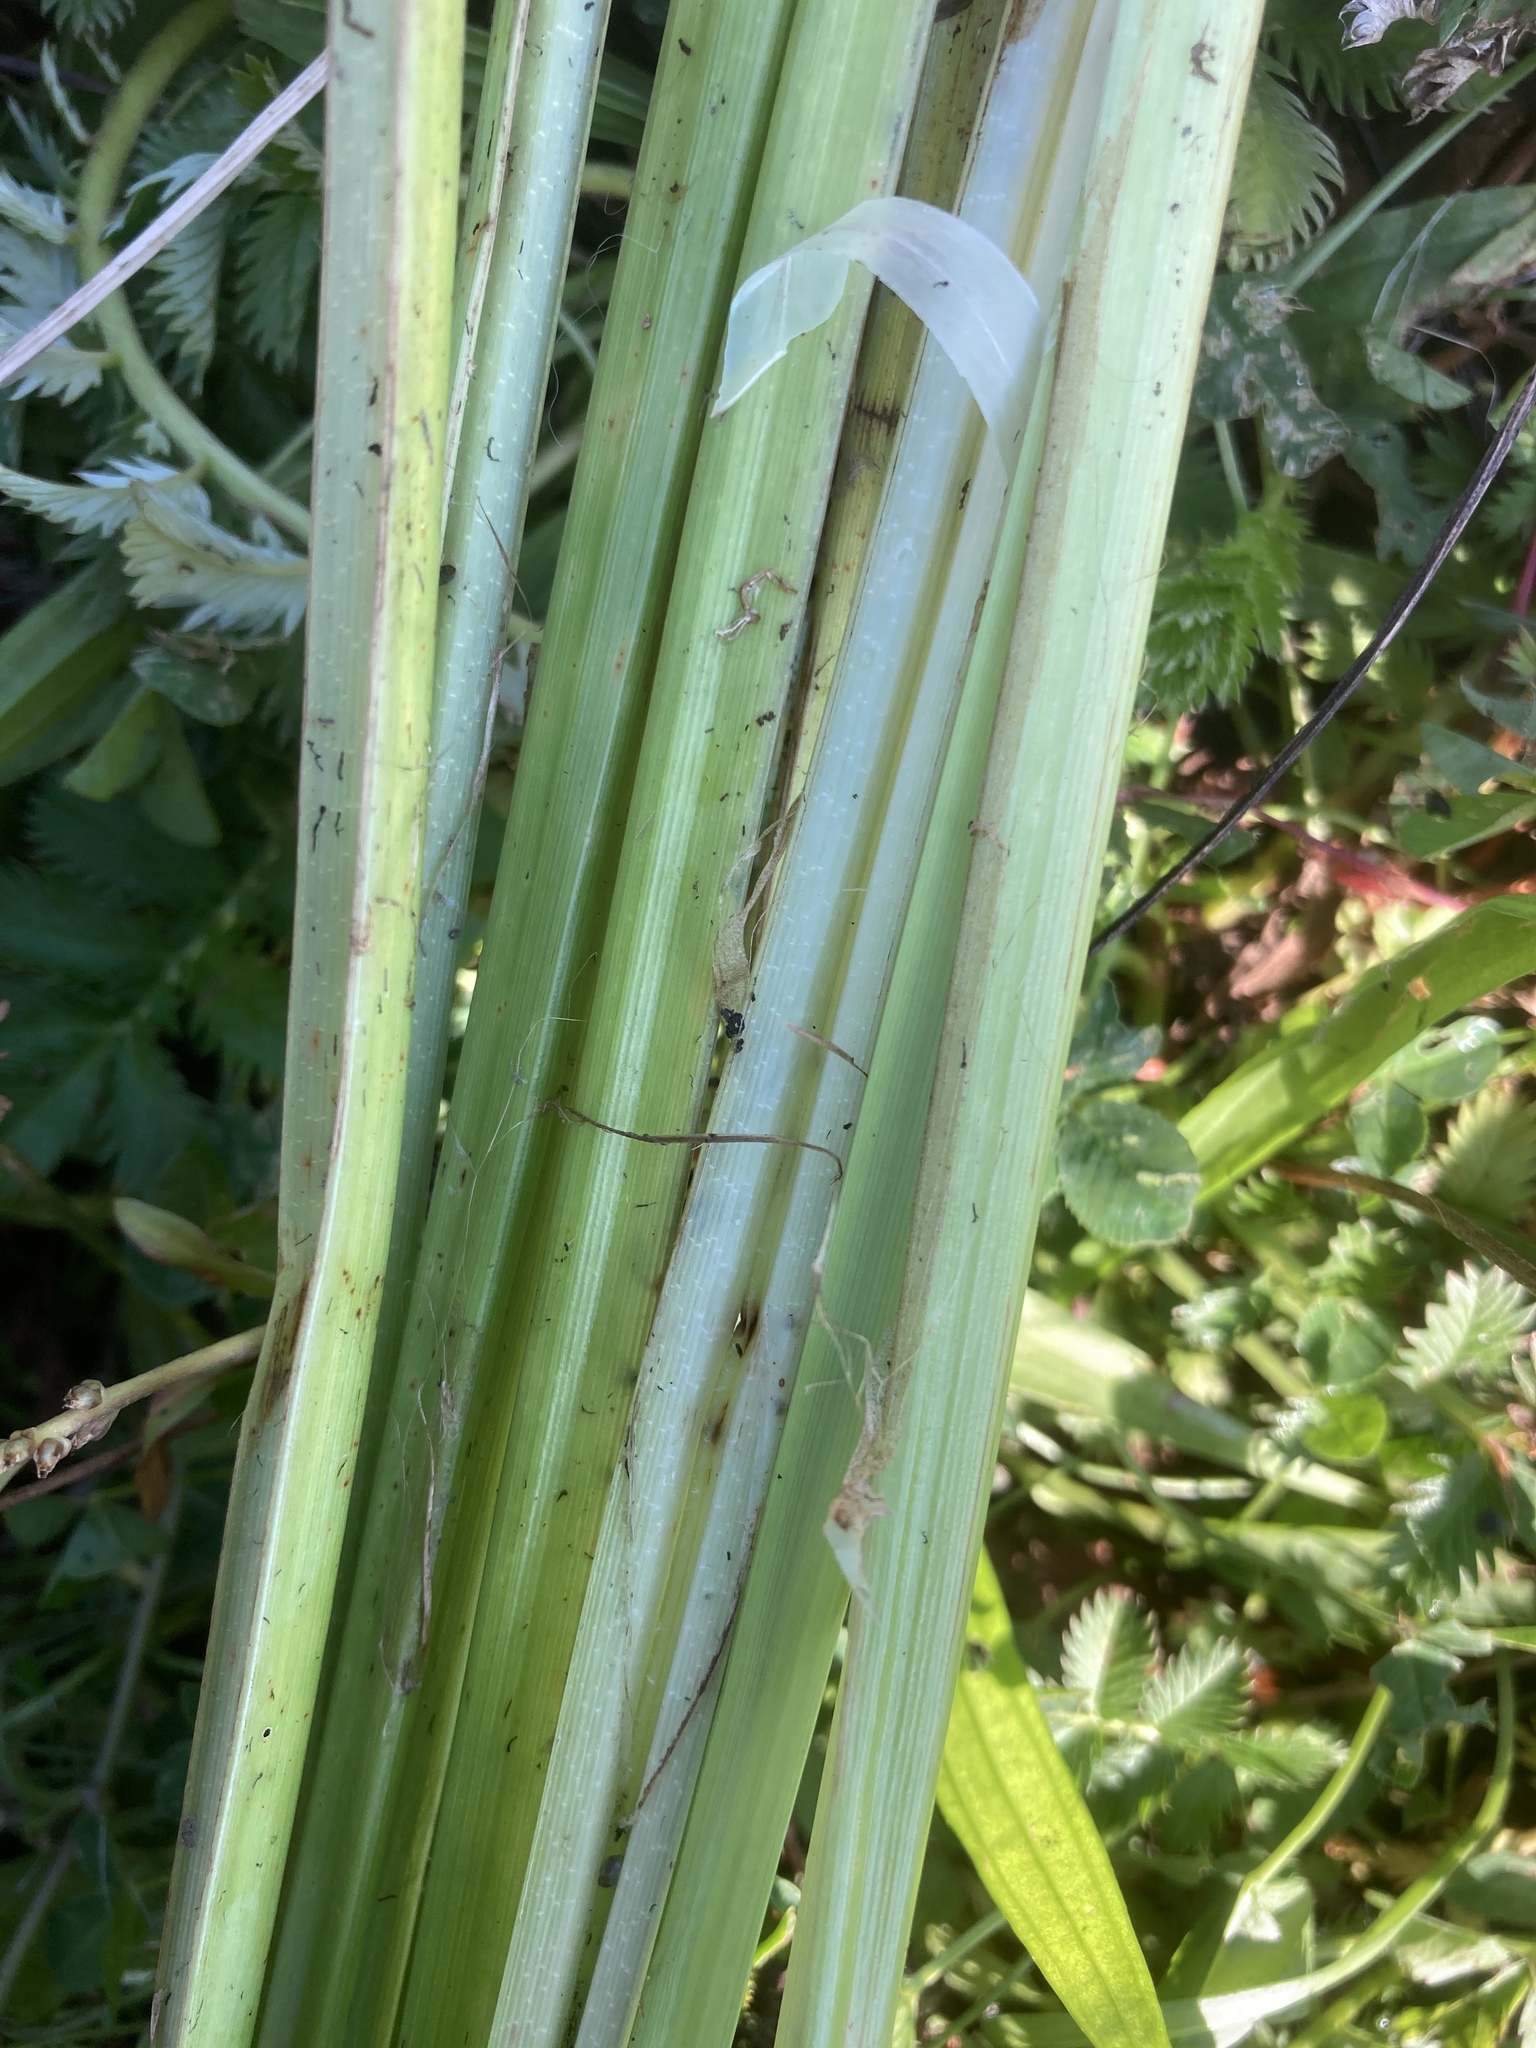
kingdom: Plantae
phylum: Tracheophyta
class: Liliopsida
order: Poales
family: Cyperaceae
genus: Carex
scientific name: Carex acutiformis
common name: Lesser pond-sedge
